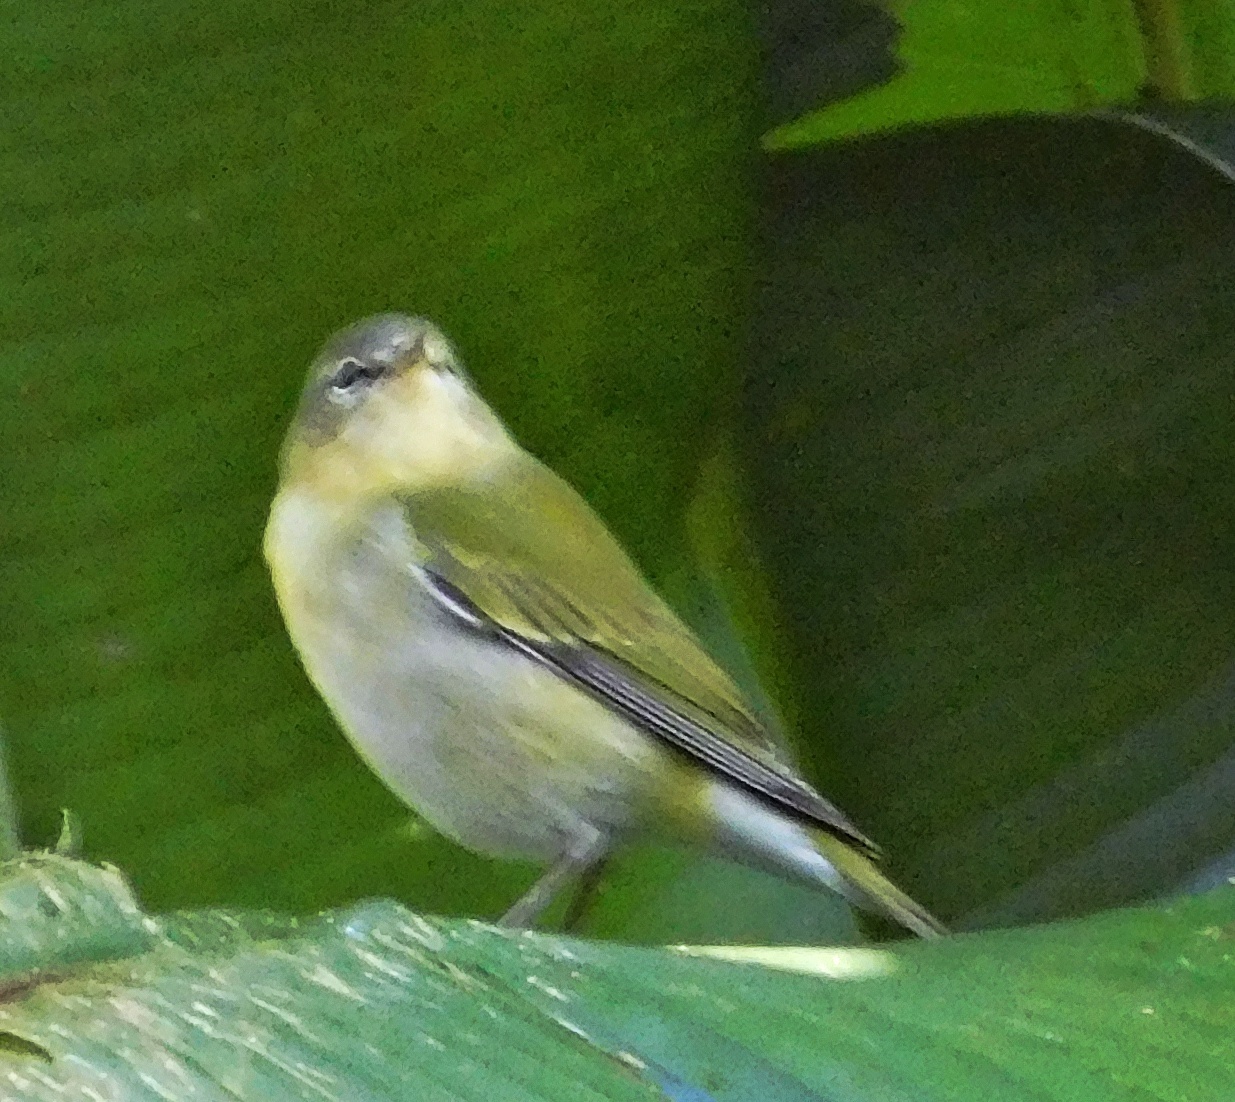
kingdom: Animalia
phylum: Chordata
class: Aves
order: Passeriformes
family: Parulidae
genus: Leiothlypis
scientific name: Leiothlypis peregrina
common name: Tennessee warbler
